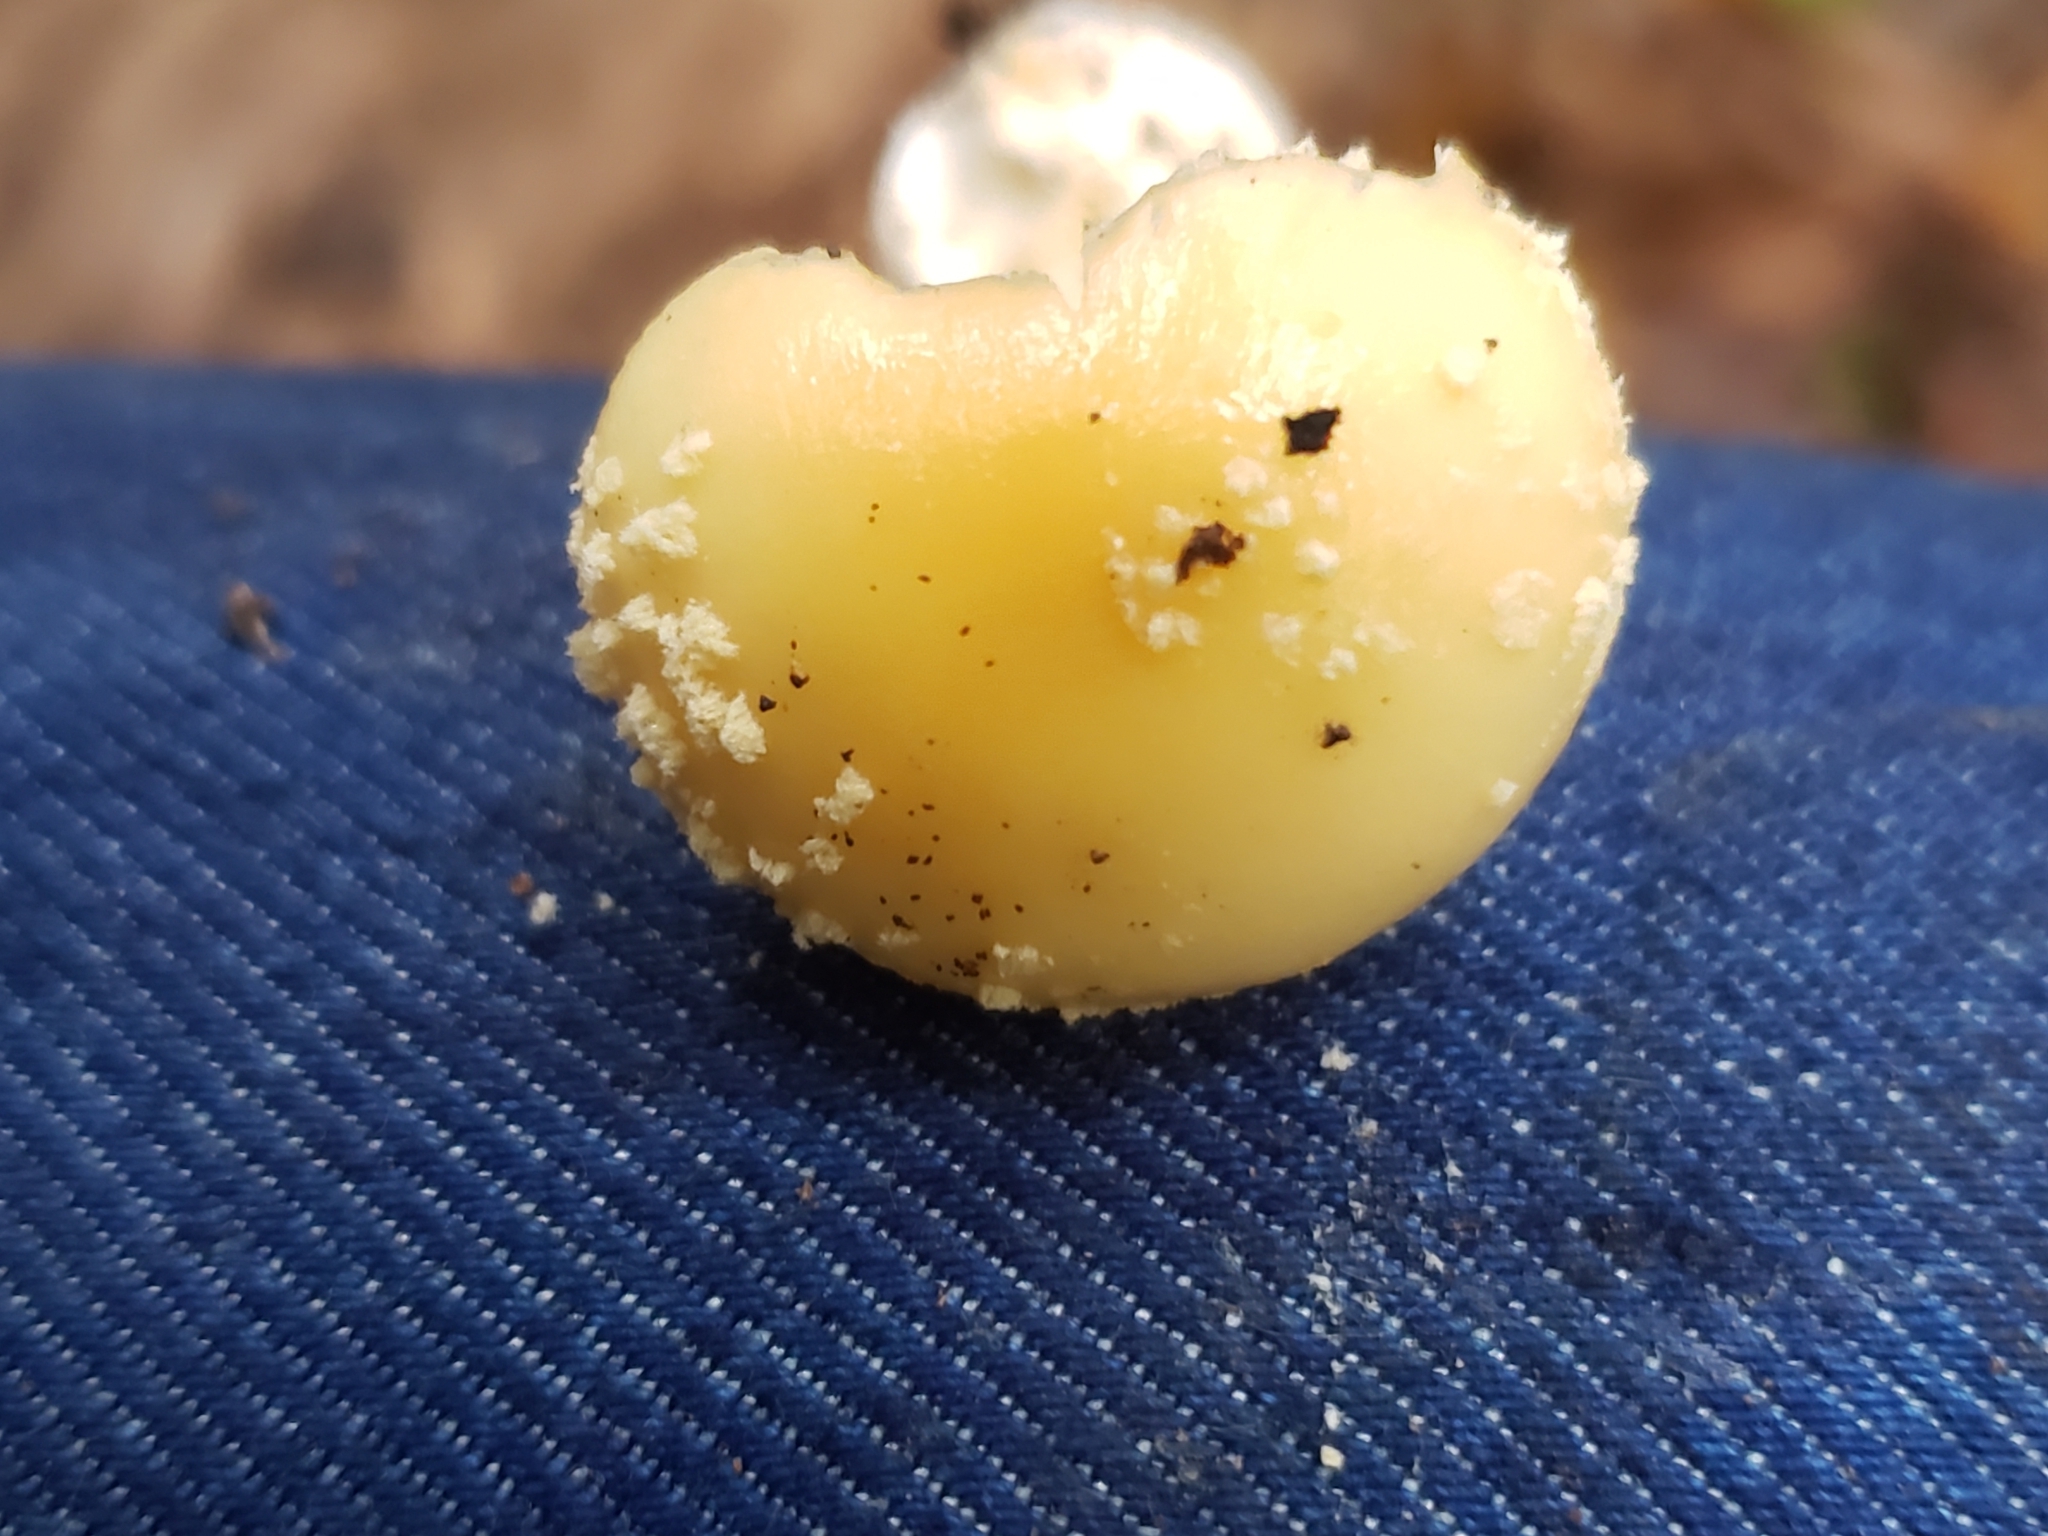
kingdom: Fungi
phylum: Basidiomycota
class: Agaricomycetes
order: Agaricales
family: Amanitaceae
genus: Amanita
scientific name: Amanita crenulata
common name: Poison champagne amanita
